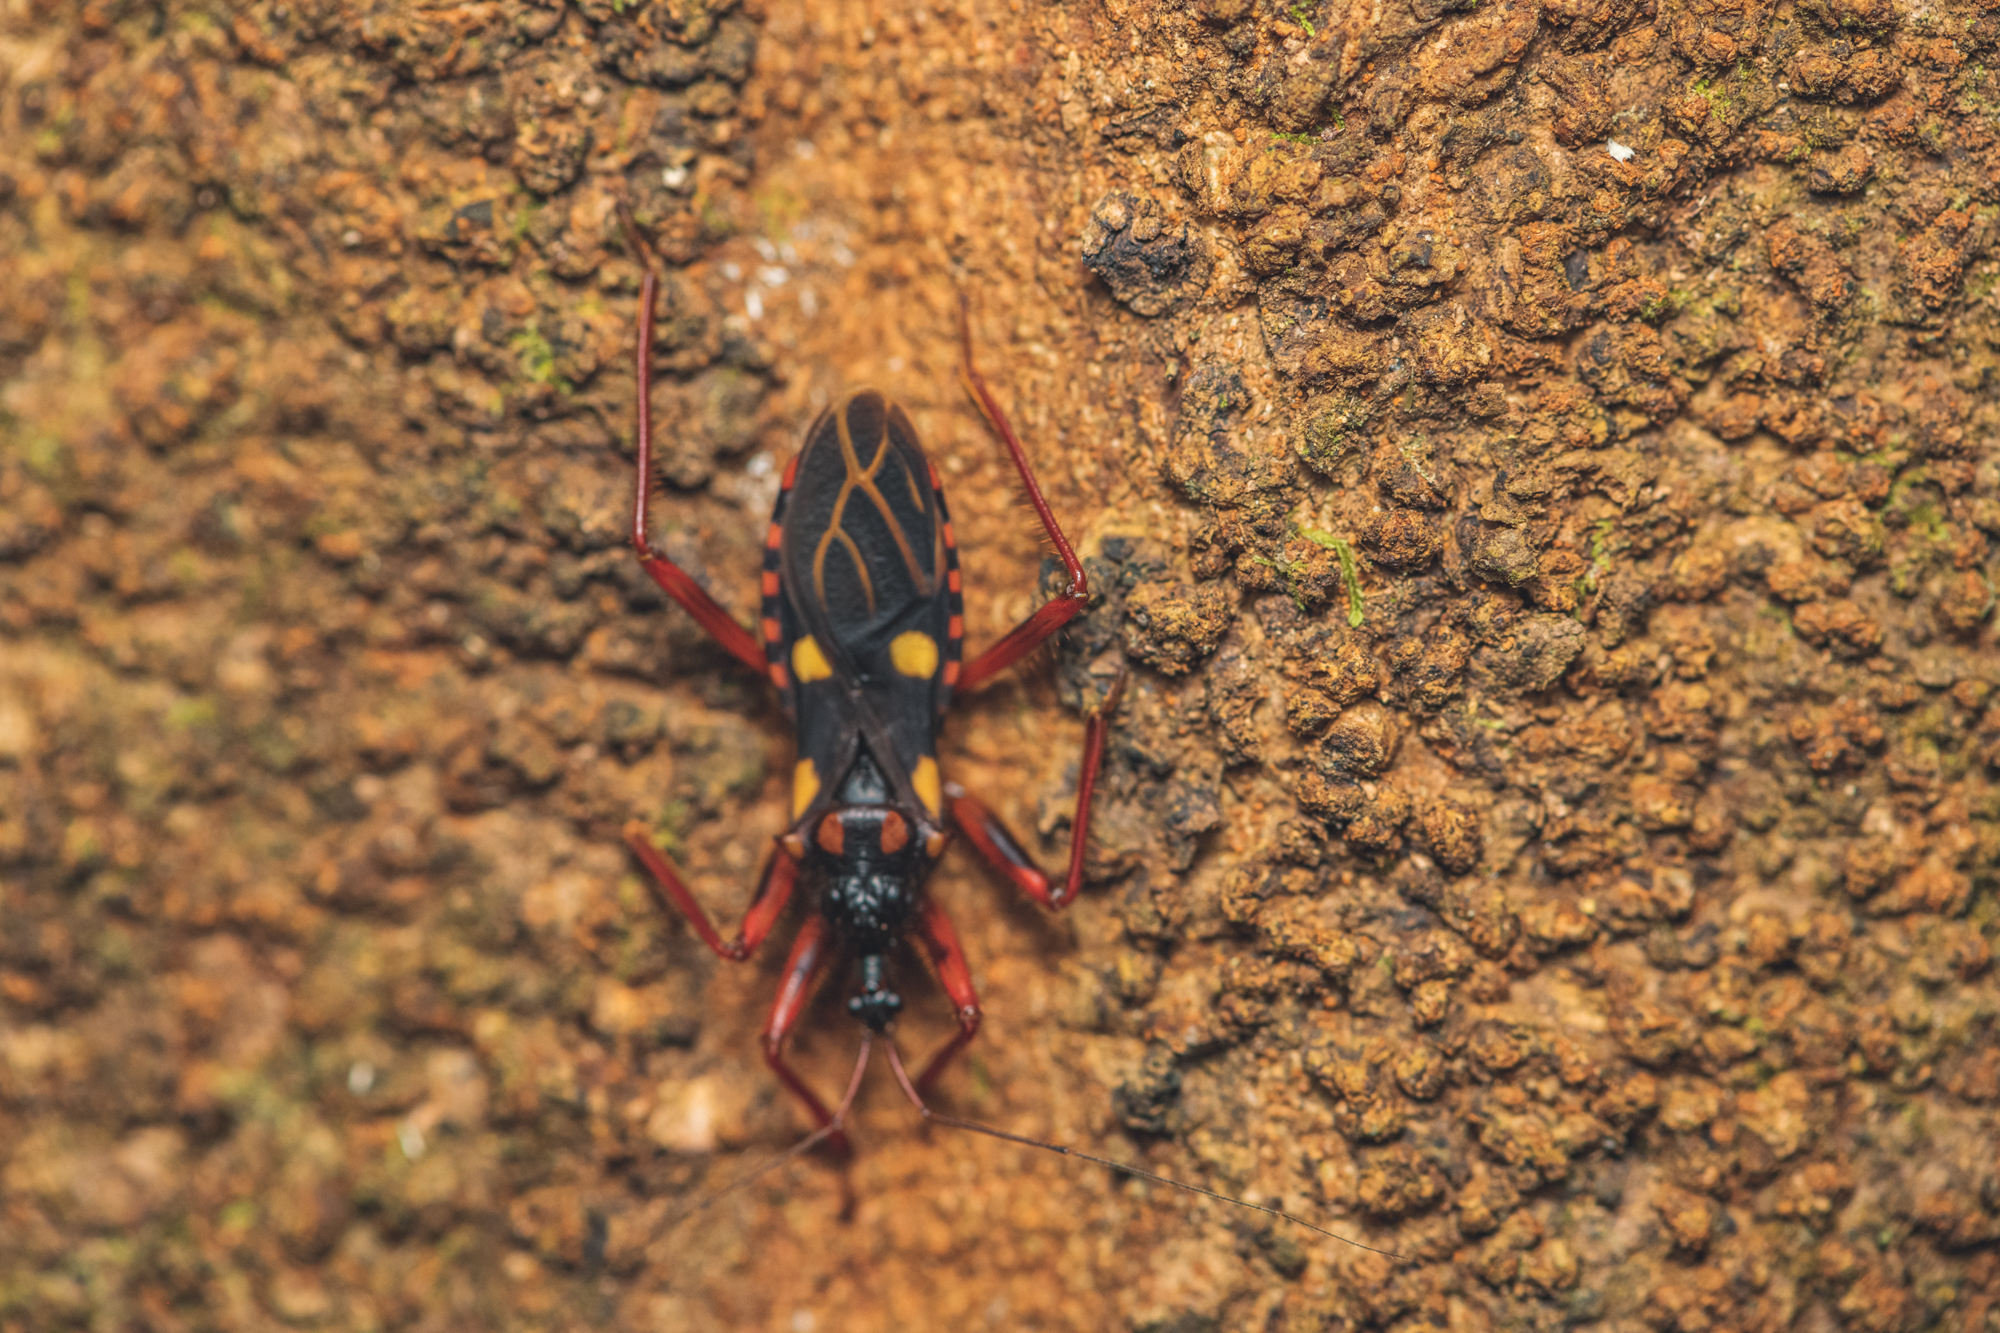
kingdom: Animalia
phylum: Arthropoda
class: Insecta
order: Hemiptera
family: Reduviidae
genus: Acanthaspis
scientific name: Acanthaspis geniculata
